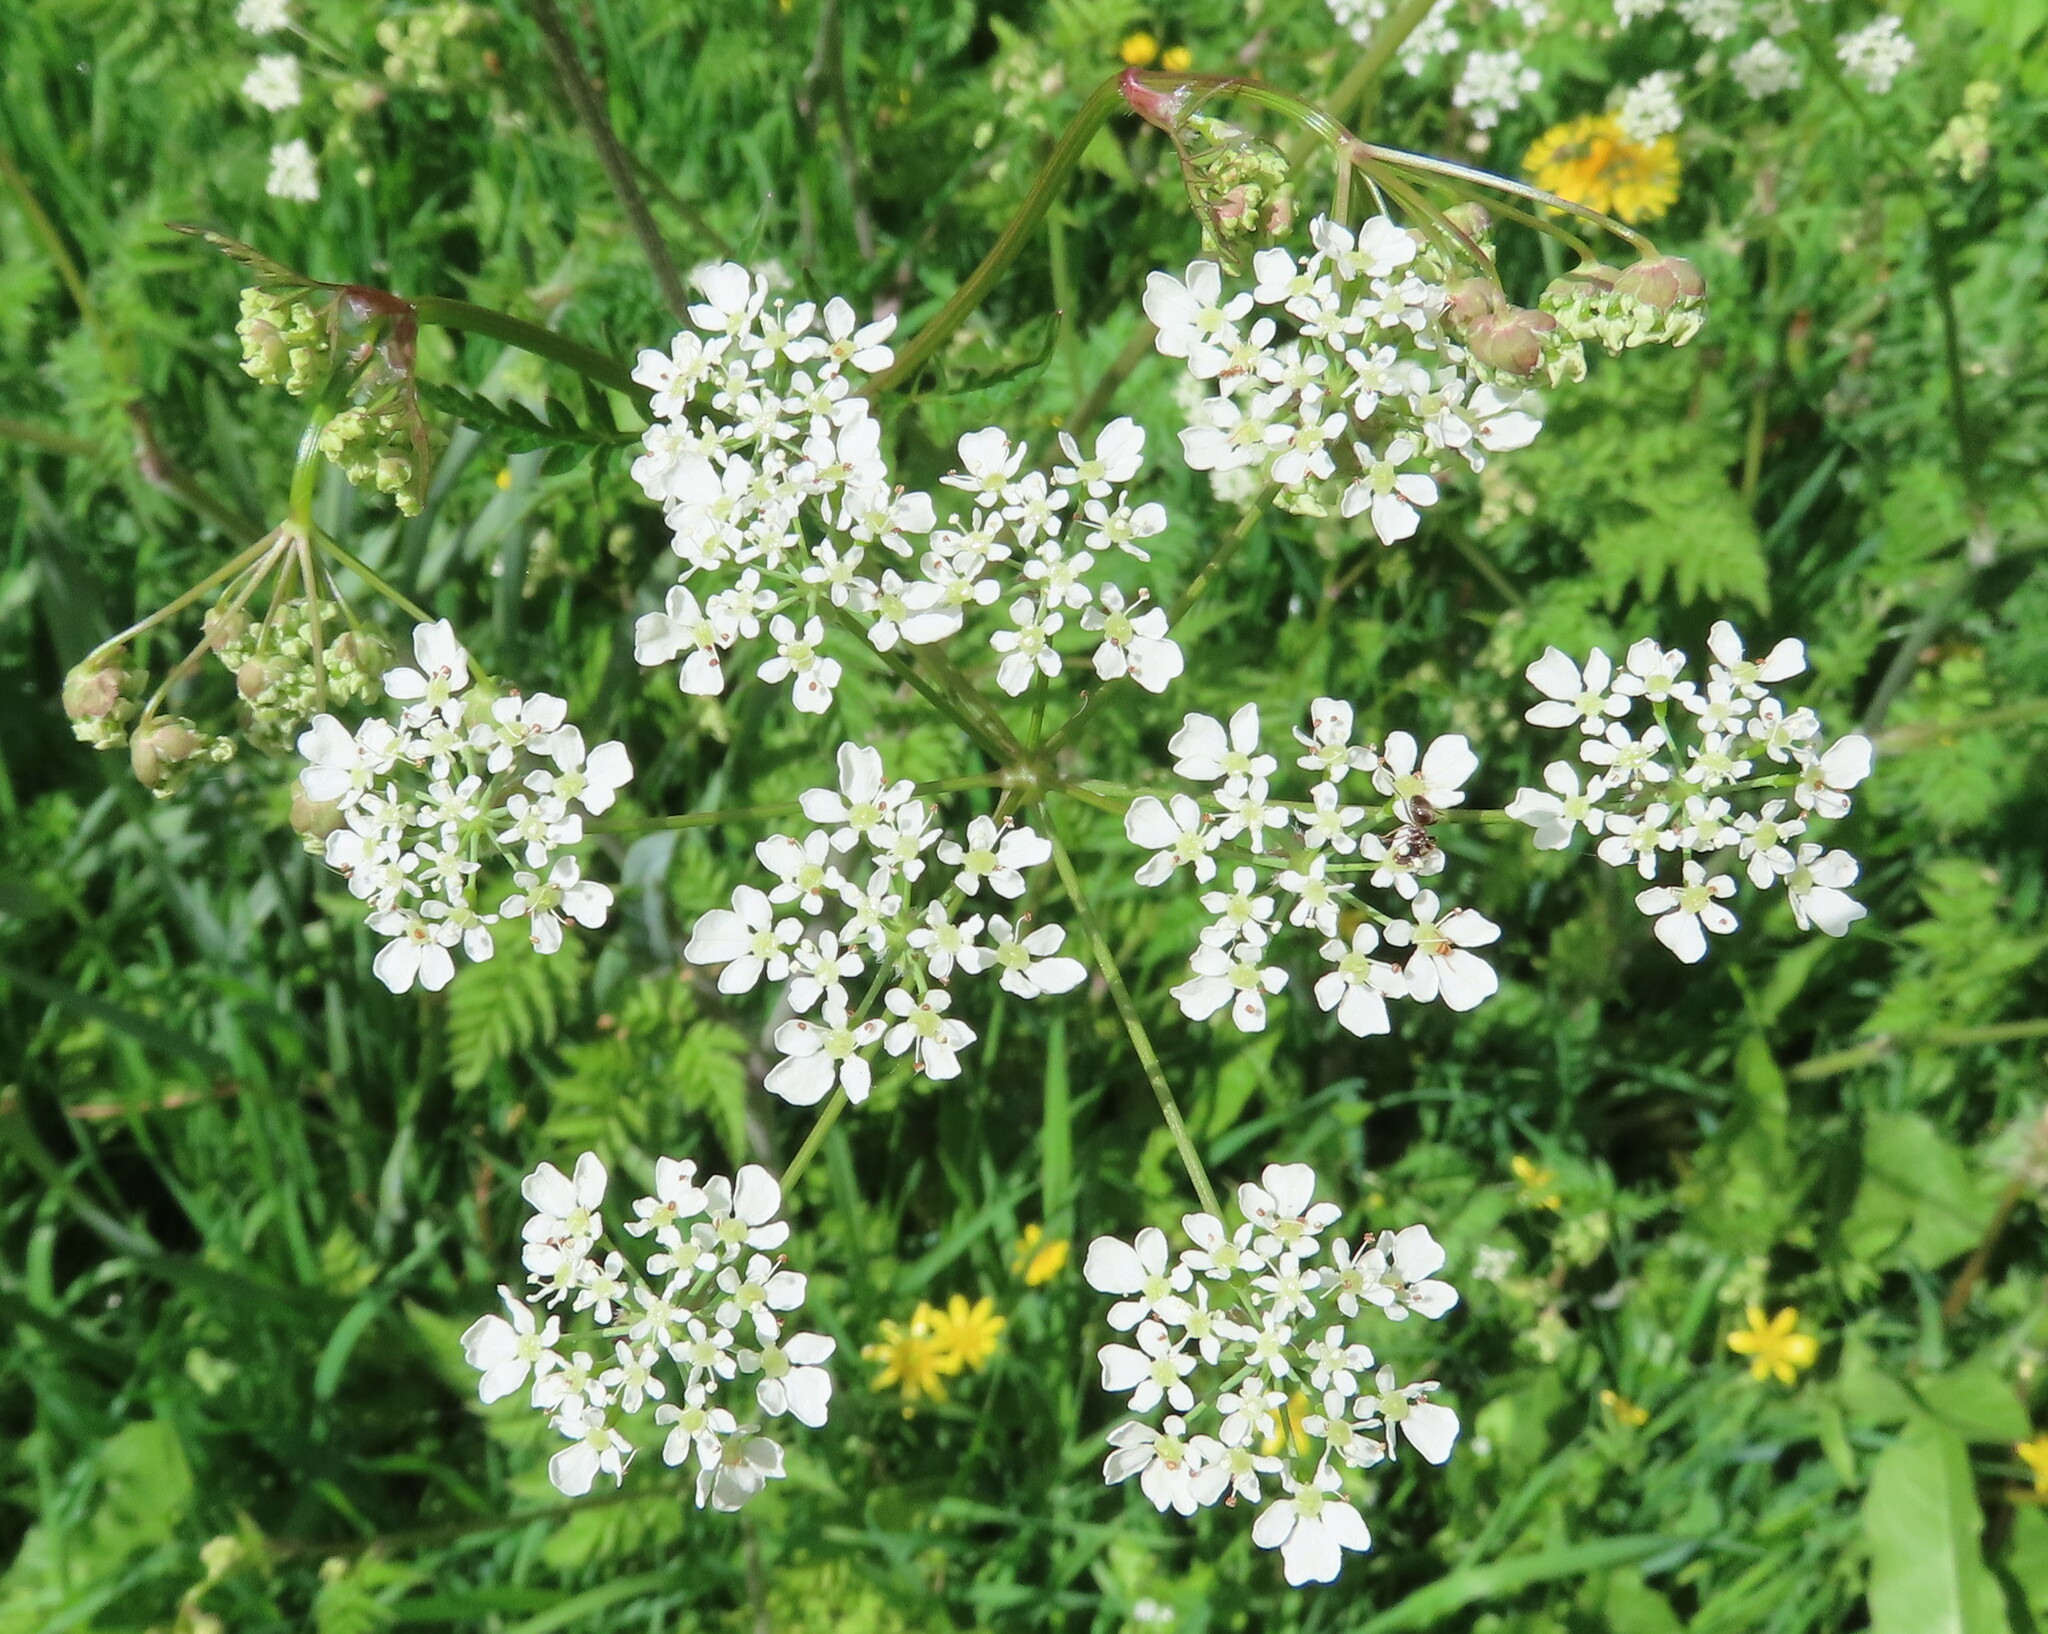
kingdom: Plantae
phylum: Tracheophyta
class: Magnoliopsida
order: Apiales
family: Apiaceae
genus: Anthriscus
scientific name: Anthriscus sylvestris
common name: Cow parsley
